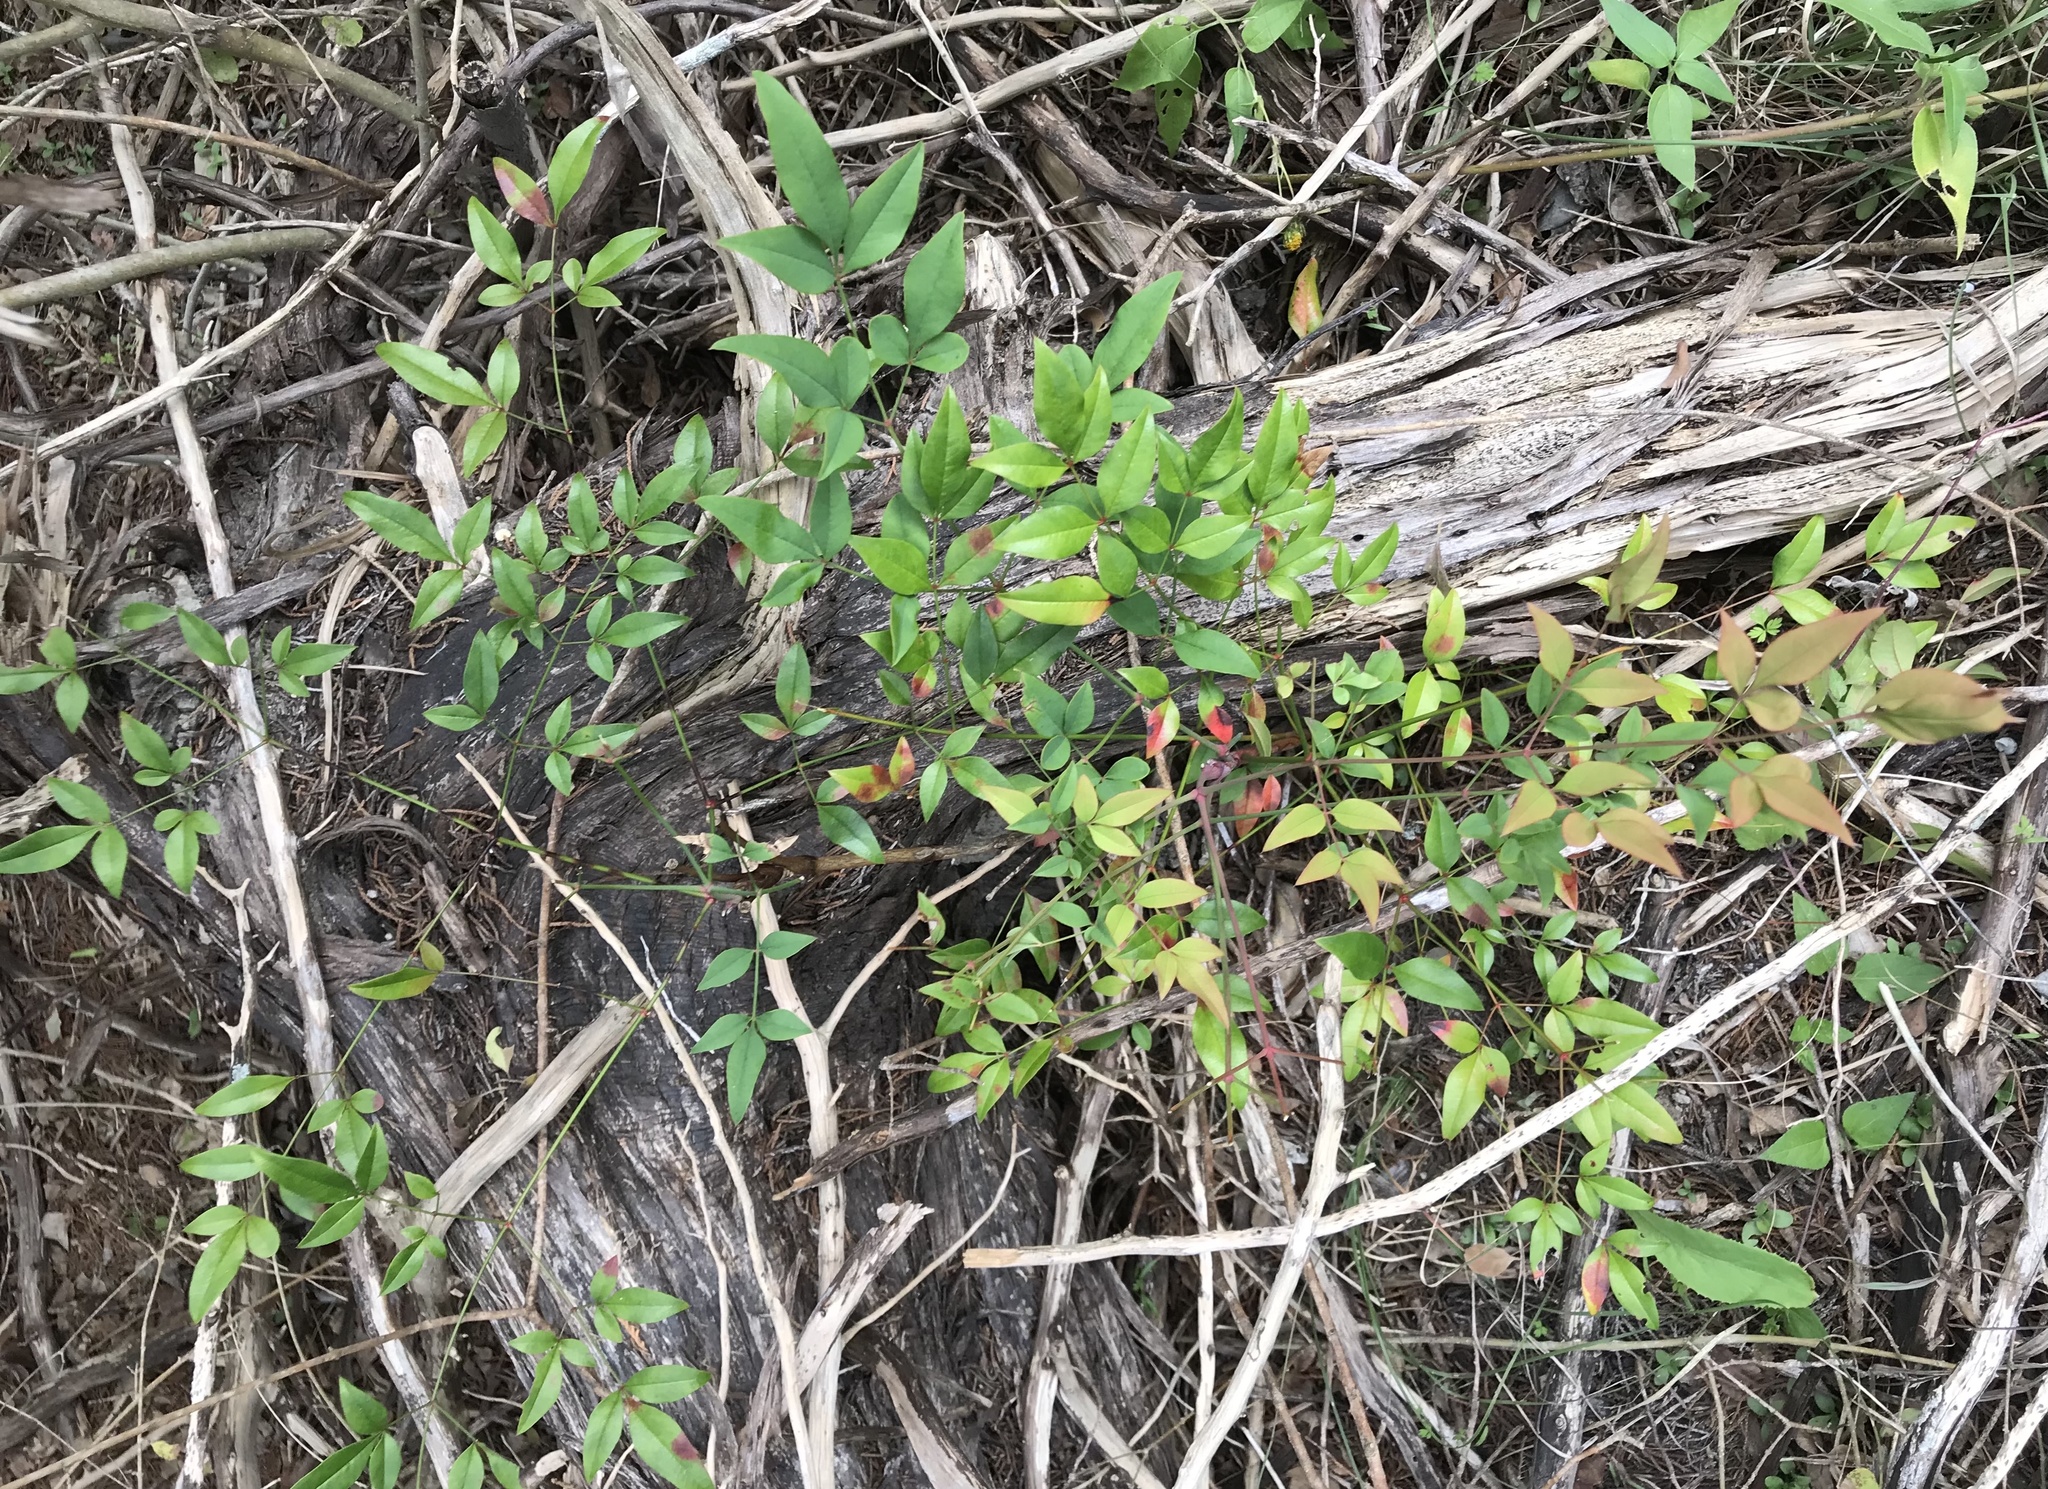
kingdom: Plantae
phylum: Tracheophyta
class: Magnoliopsida
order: Ranunculales
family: Berberidaceae
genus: Nandina
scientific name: Nandina domestica
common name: Sacred bamboo
